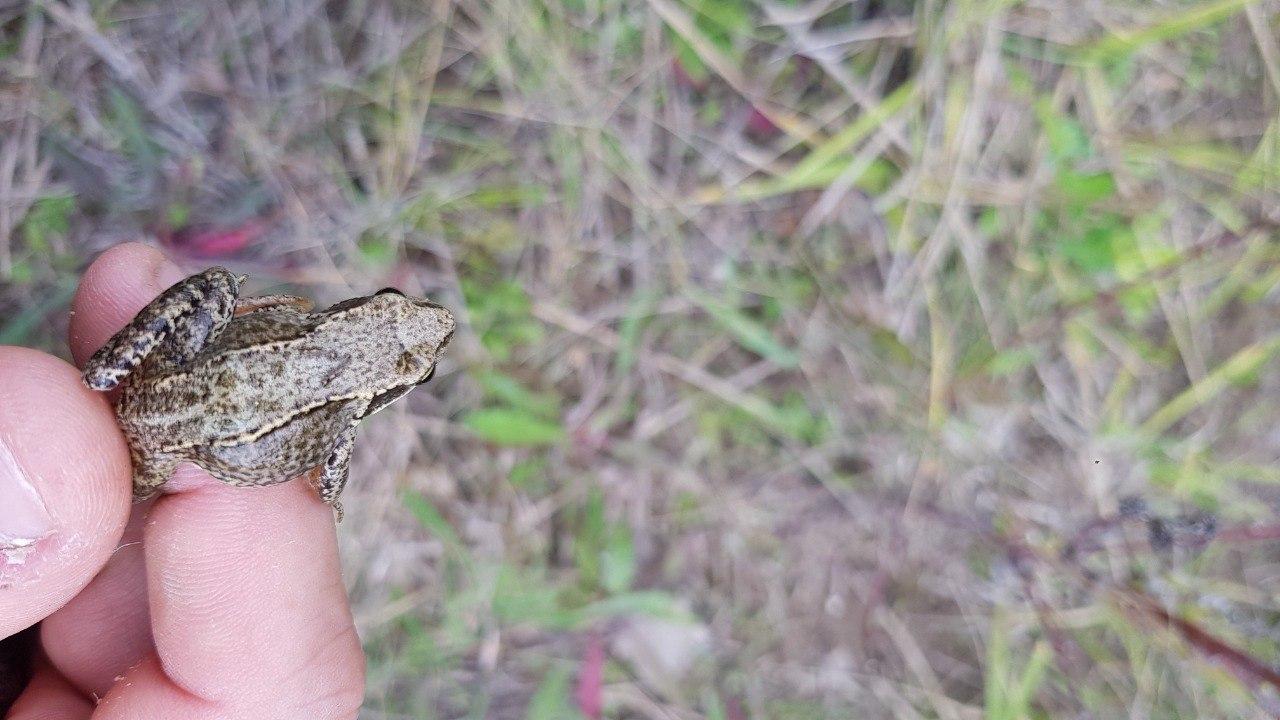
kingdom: Animalia
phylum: Chordata
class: Amphibia
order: Anura
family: Ranidae
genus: Rana
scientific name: Rana temporaria
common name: Common frog
